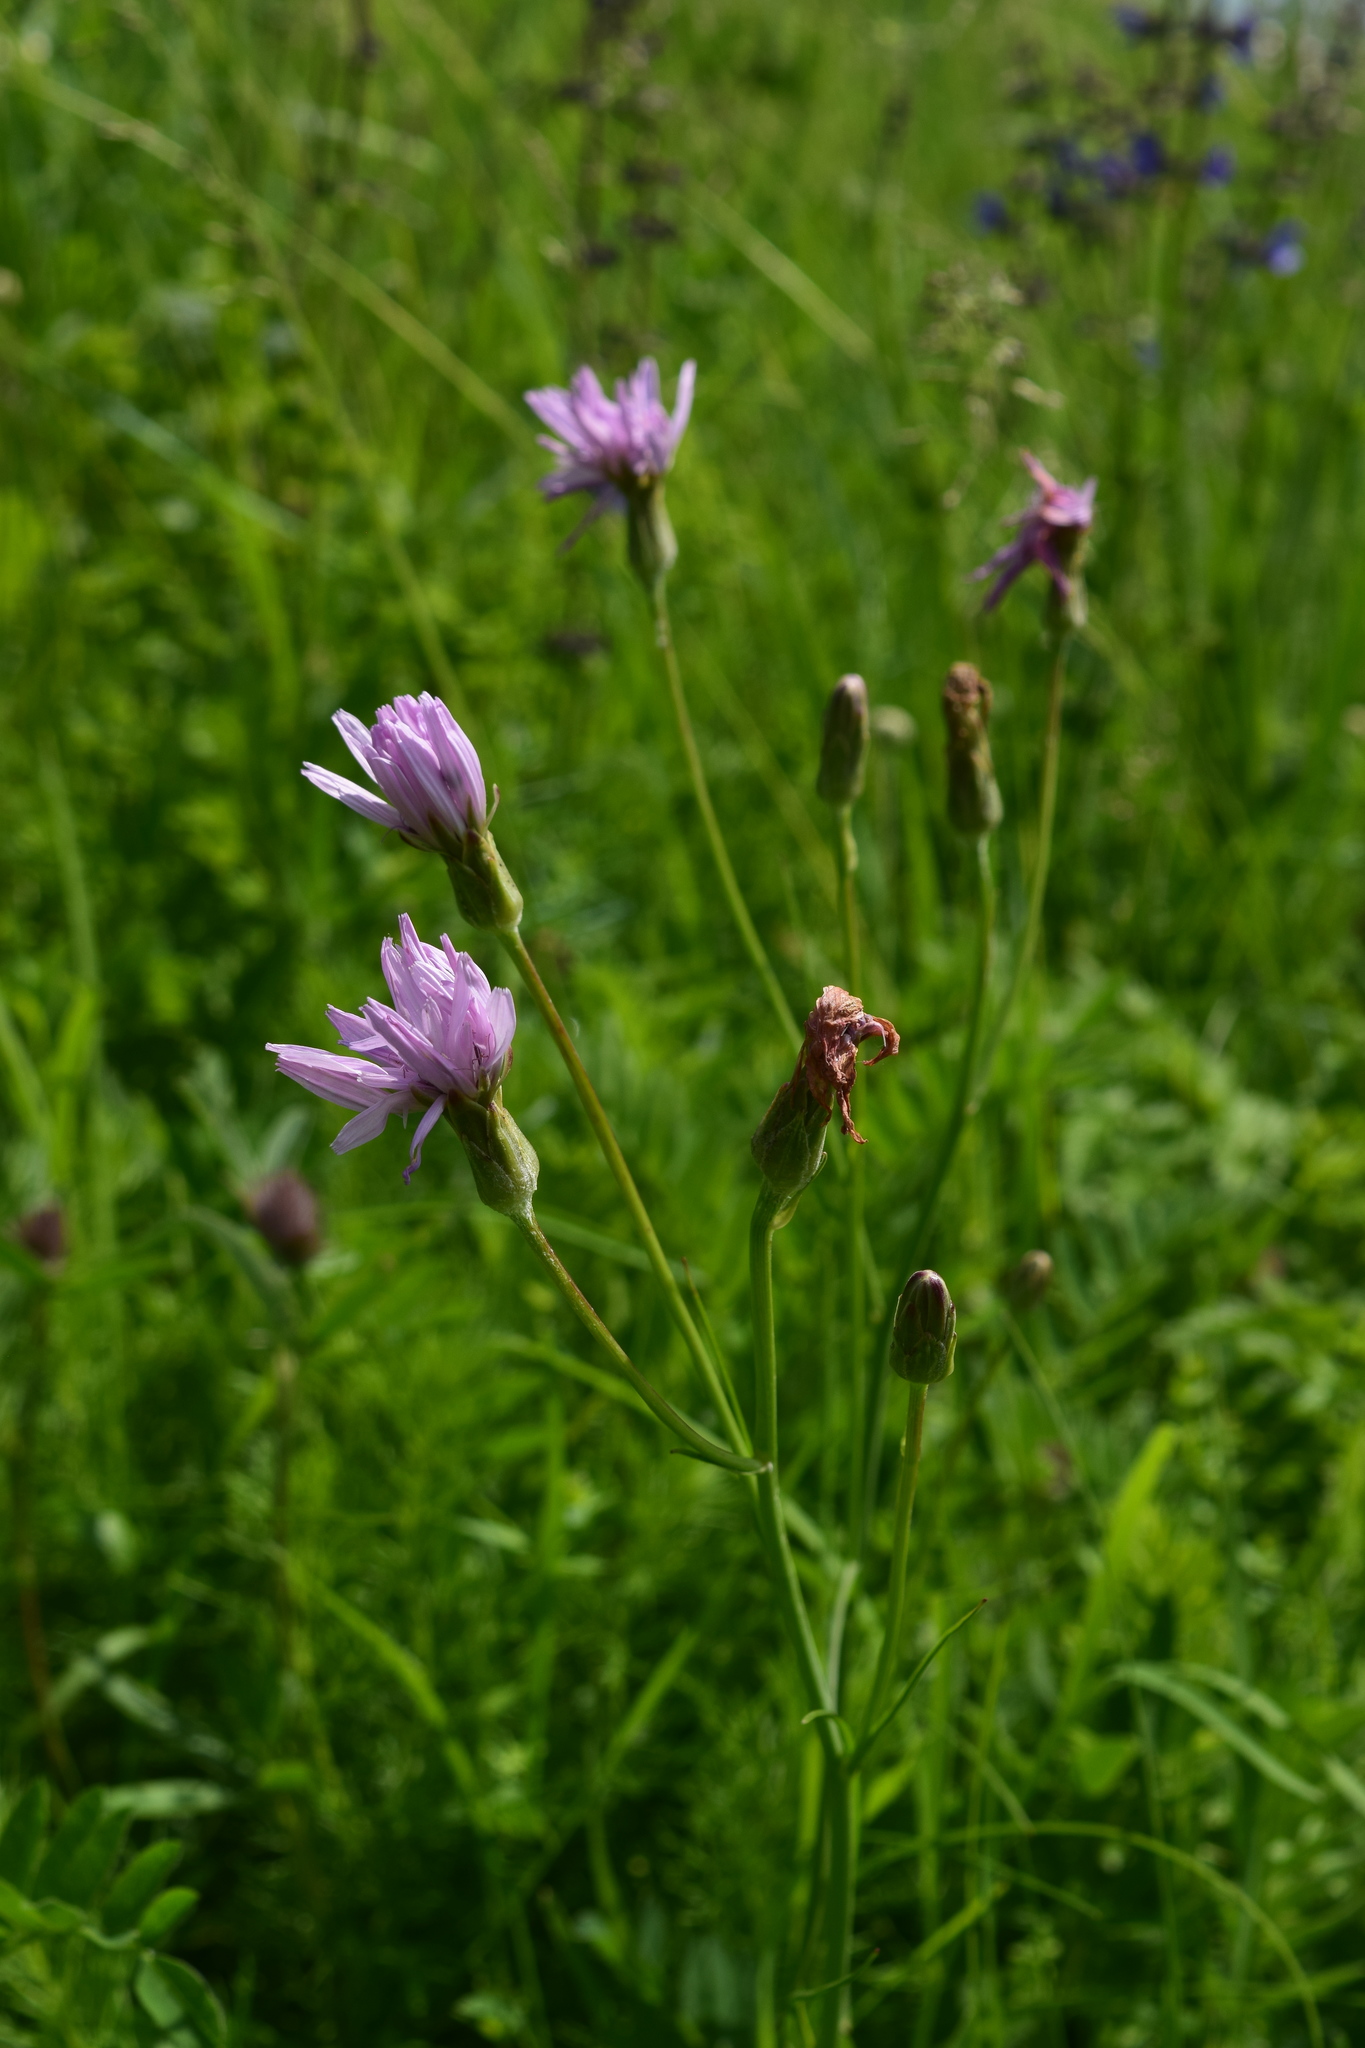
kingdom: Plantae
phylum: Tracheophyta
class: Magnoliopsida
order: Asterales
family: Asteraceae
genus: Scorzonera
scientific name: Scorzonera purpurea
